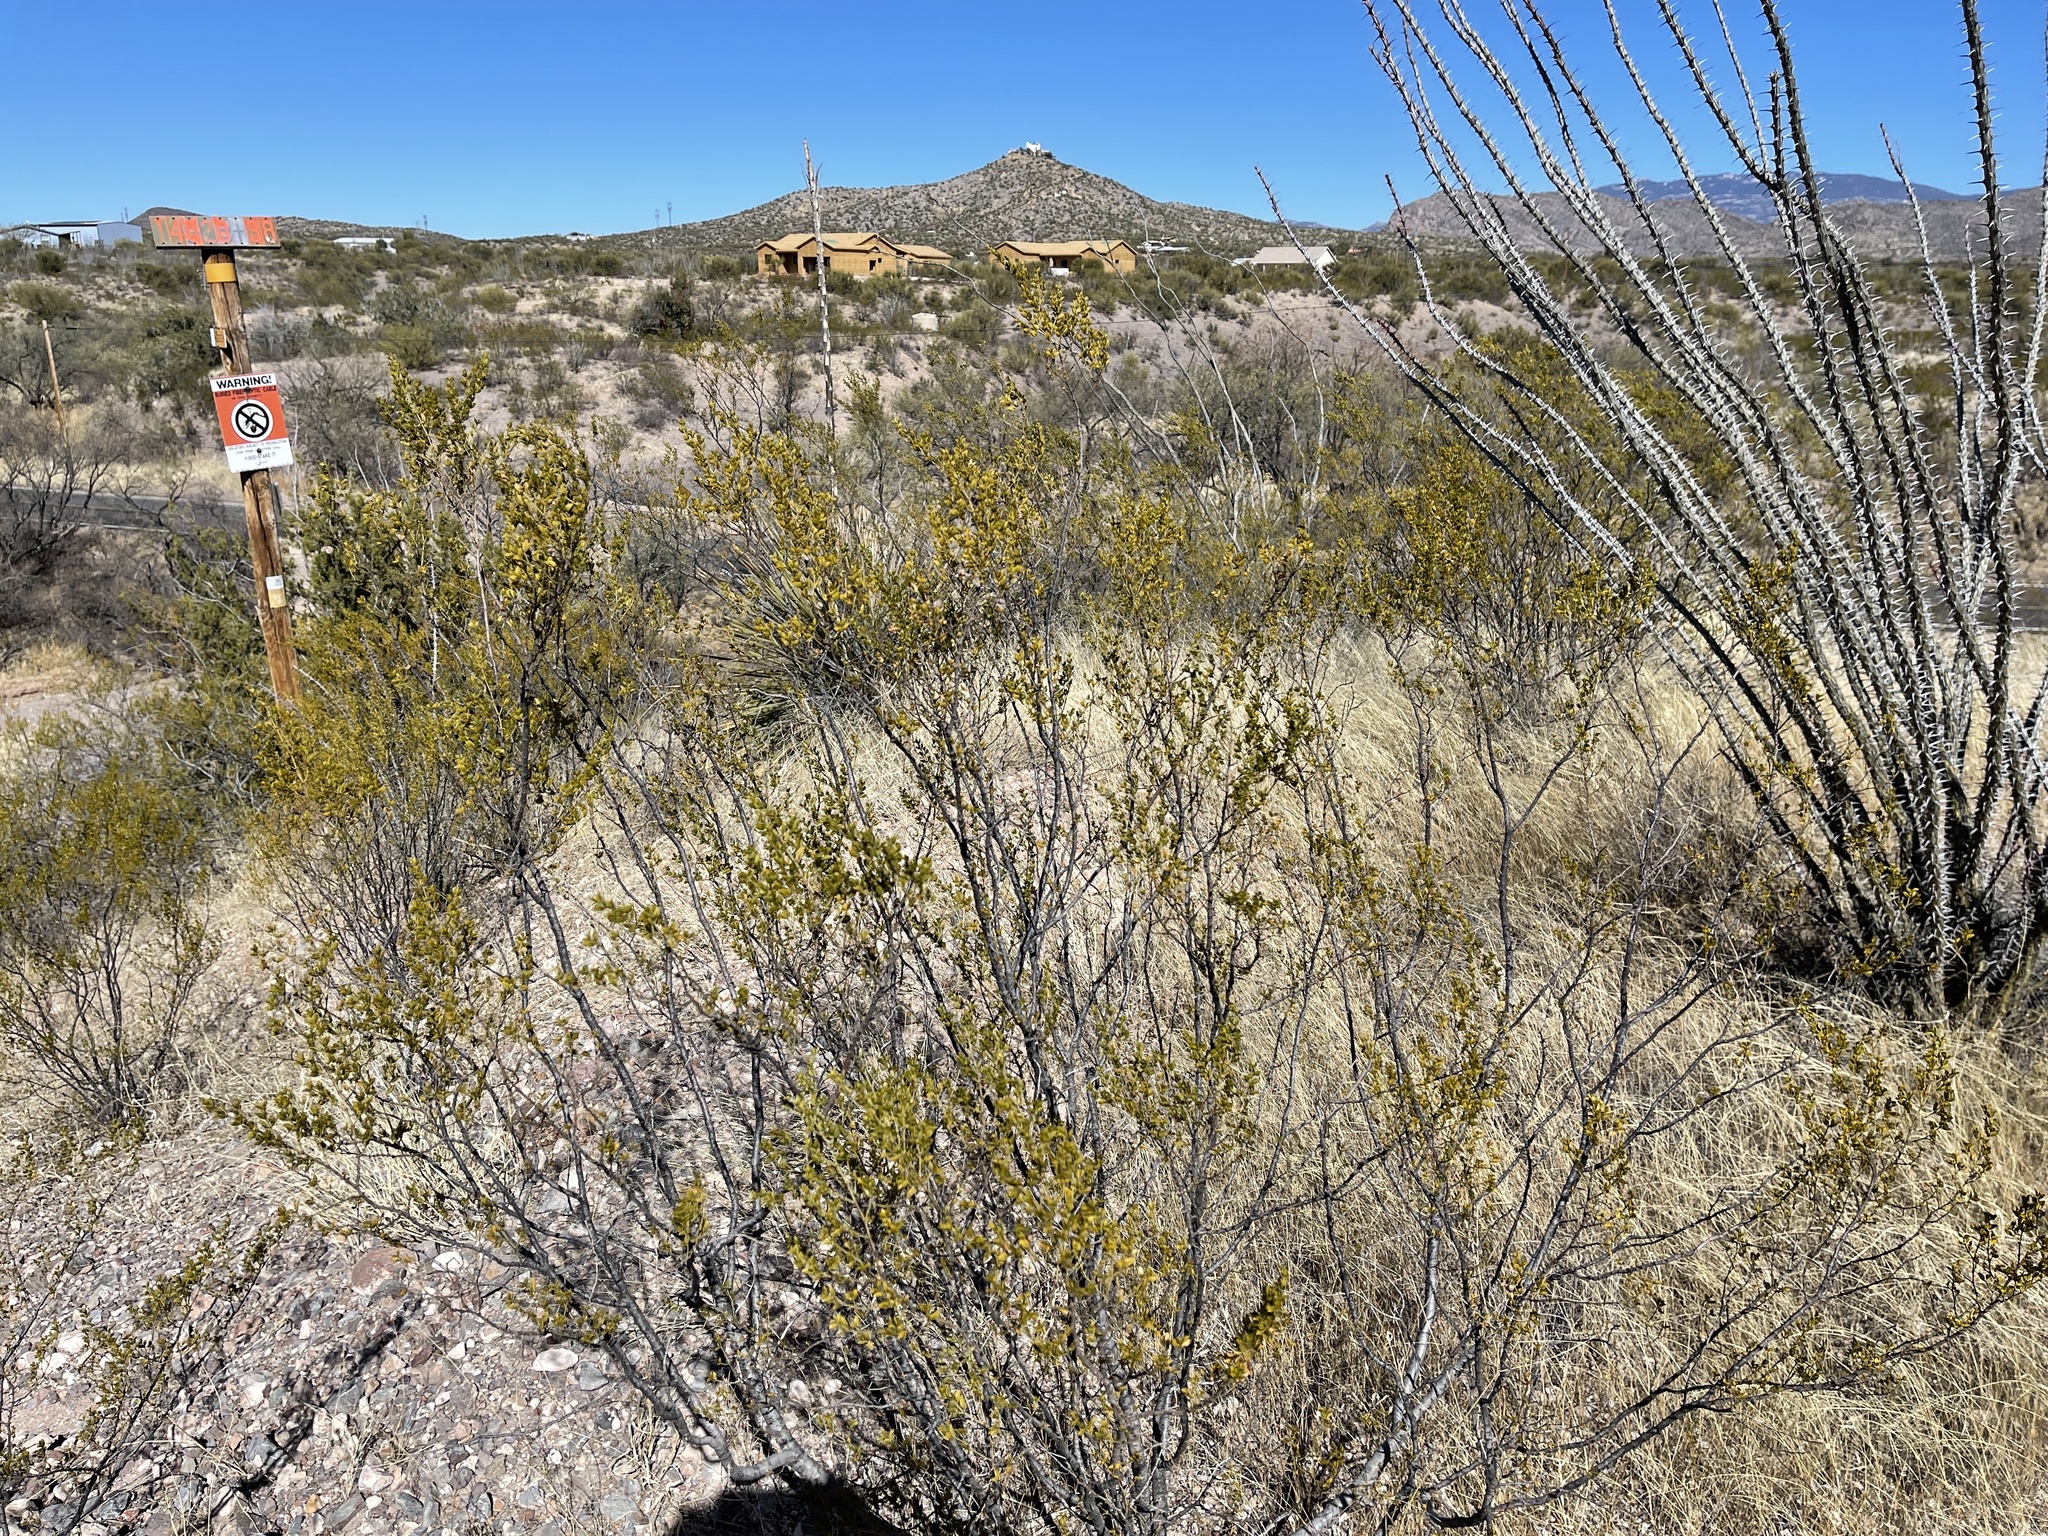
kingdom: Plantae
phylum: Tracheophyta
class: Magnoliopsida
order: Zygophyllales
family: Zygophyllaceae
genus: Larrea
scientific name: Larrea tridentata
